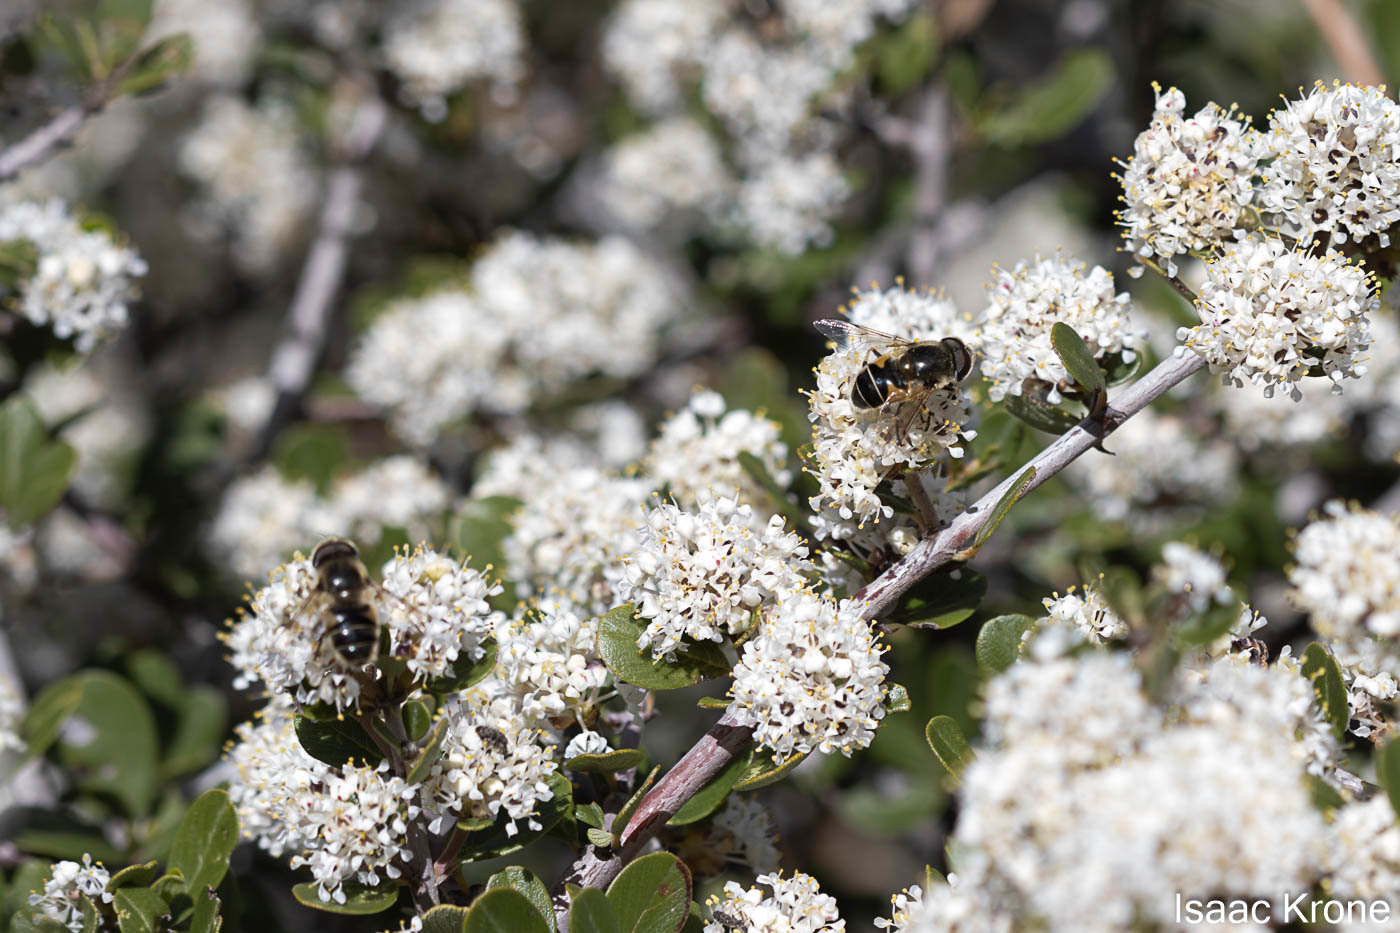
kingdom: Animalia
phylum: Arthropoda
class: Insecta
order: Diptera
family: Syrphidae
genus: Eristalis
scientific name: Eristalis hirta
